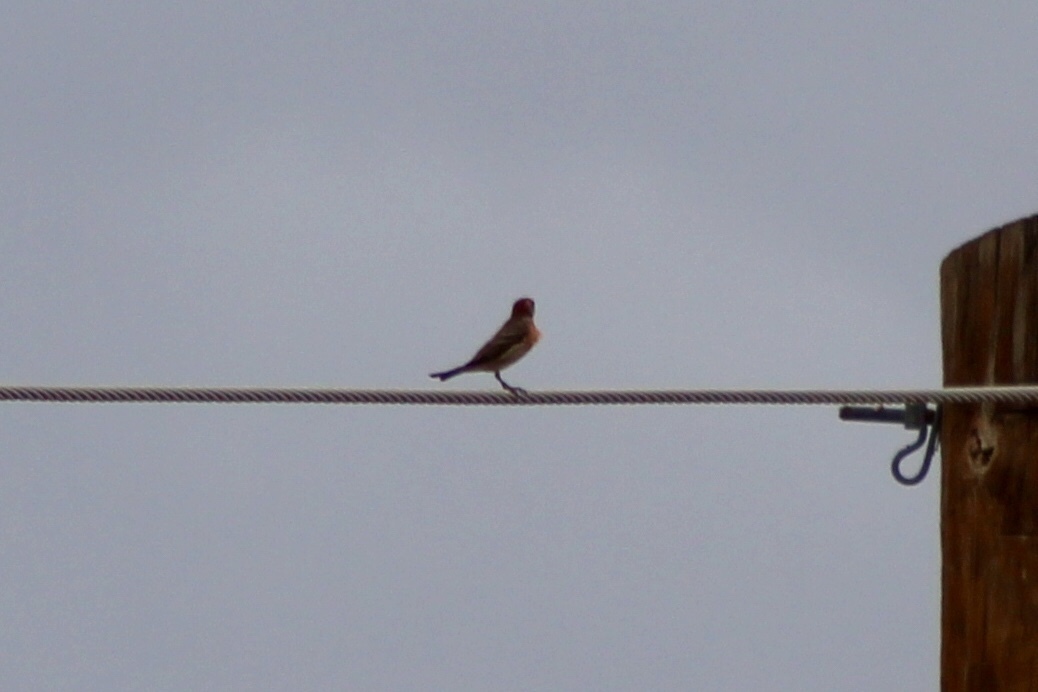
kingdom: Animalia
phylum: Chordata
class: Aves
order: Passeriformes
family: Fringillidae
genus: Haemorhous
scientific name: Haemorhous mexicanus
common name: House finch
